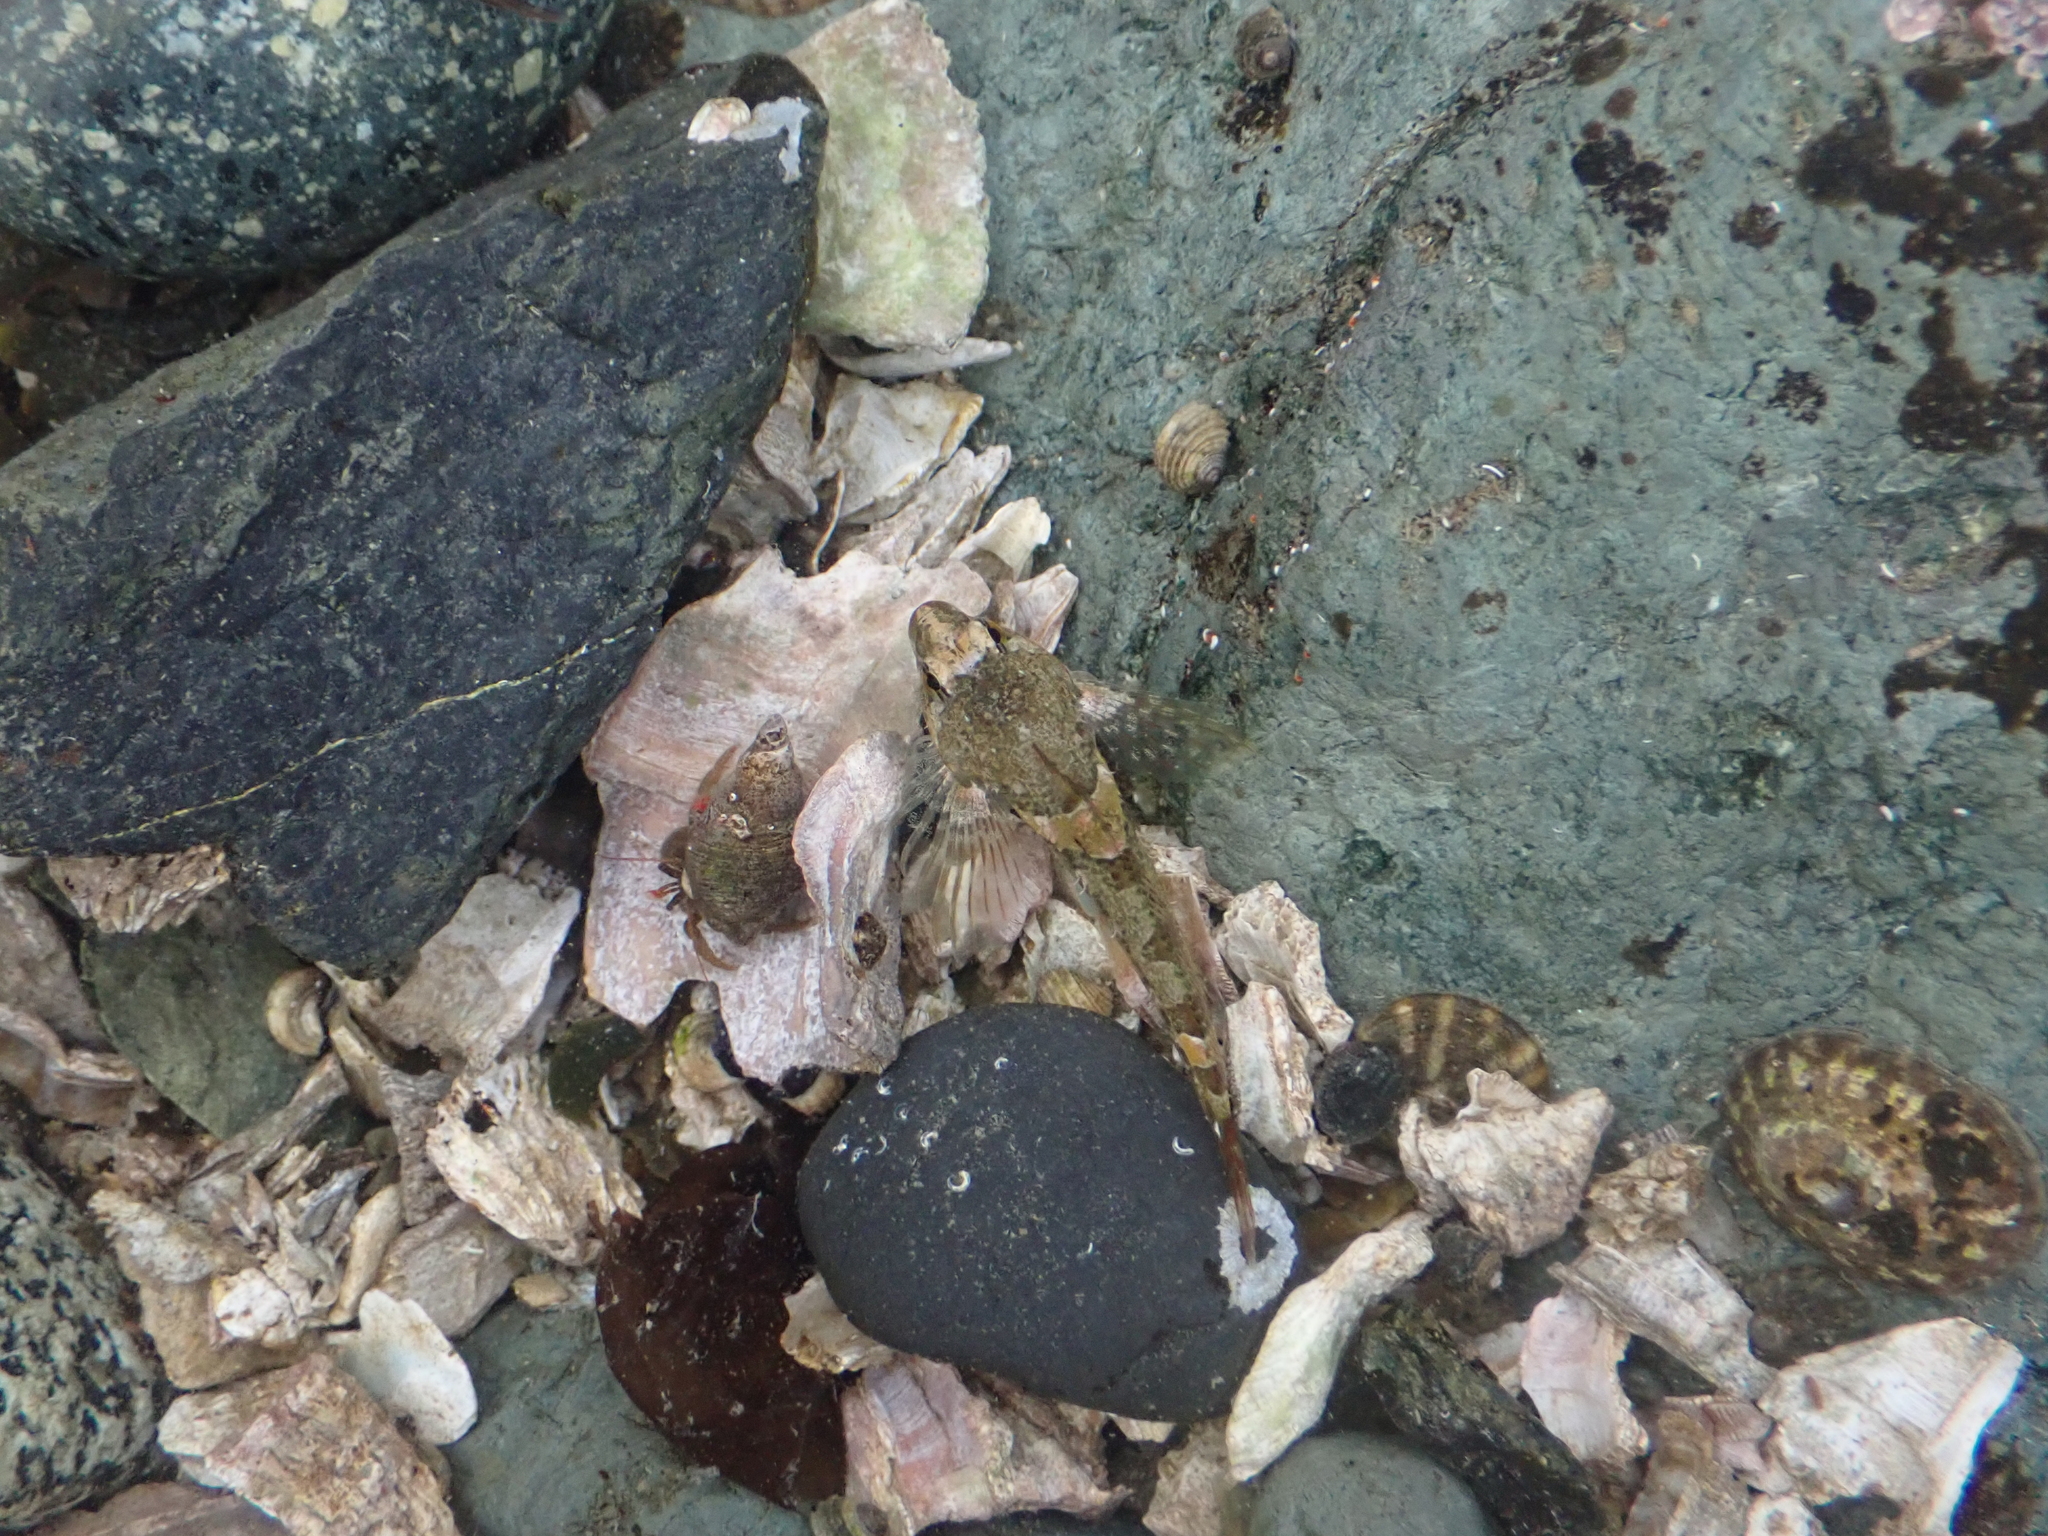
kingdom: Animalia
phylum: Chordata
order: Scorpaeniformes
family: Cottidae
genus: Oligocottus
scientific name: Oligocottus maculosus
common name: Tidepool sculpin
